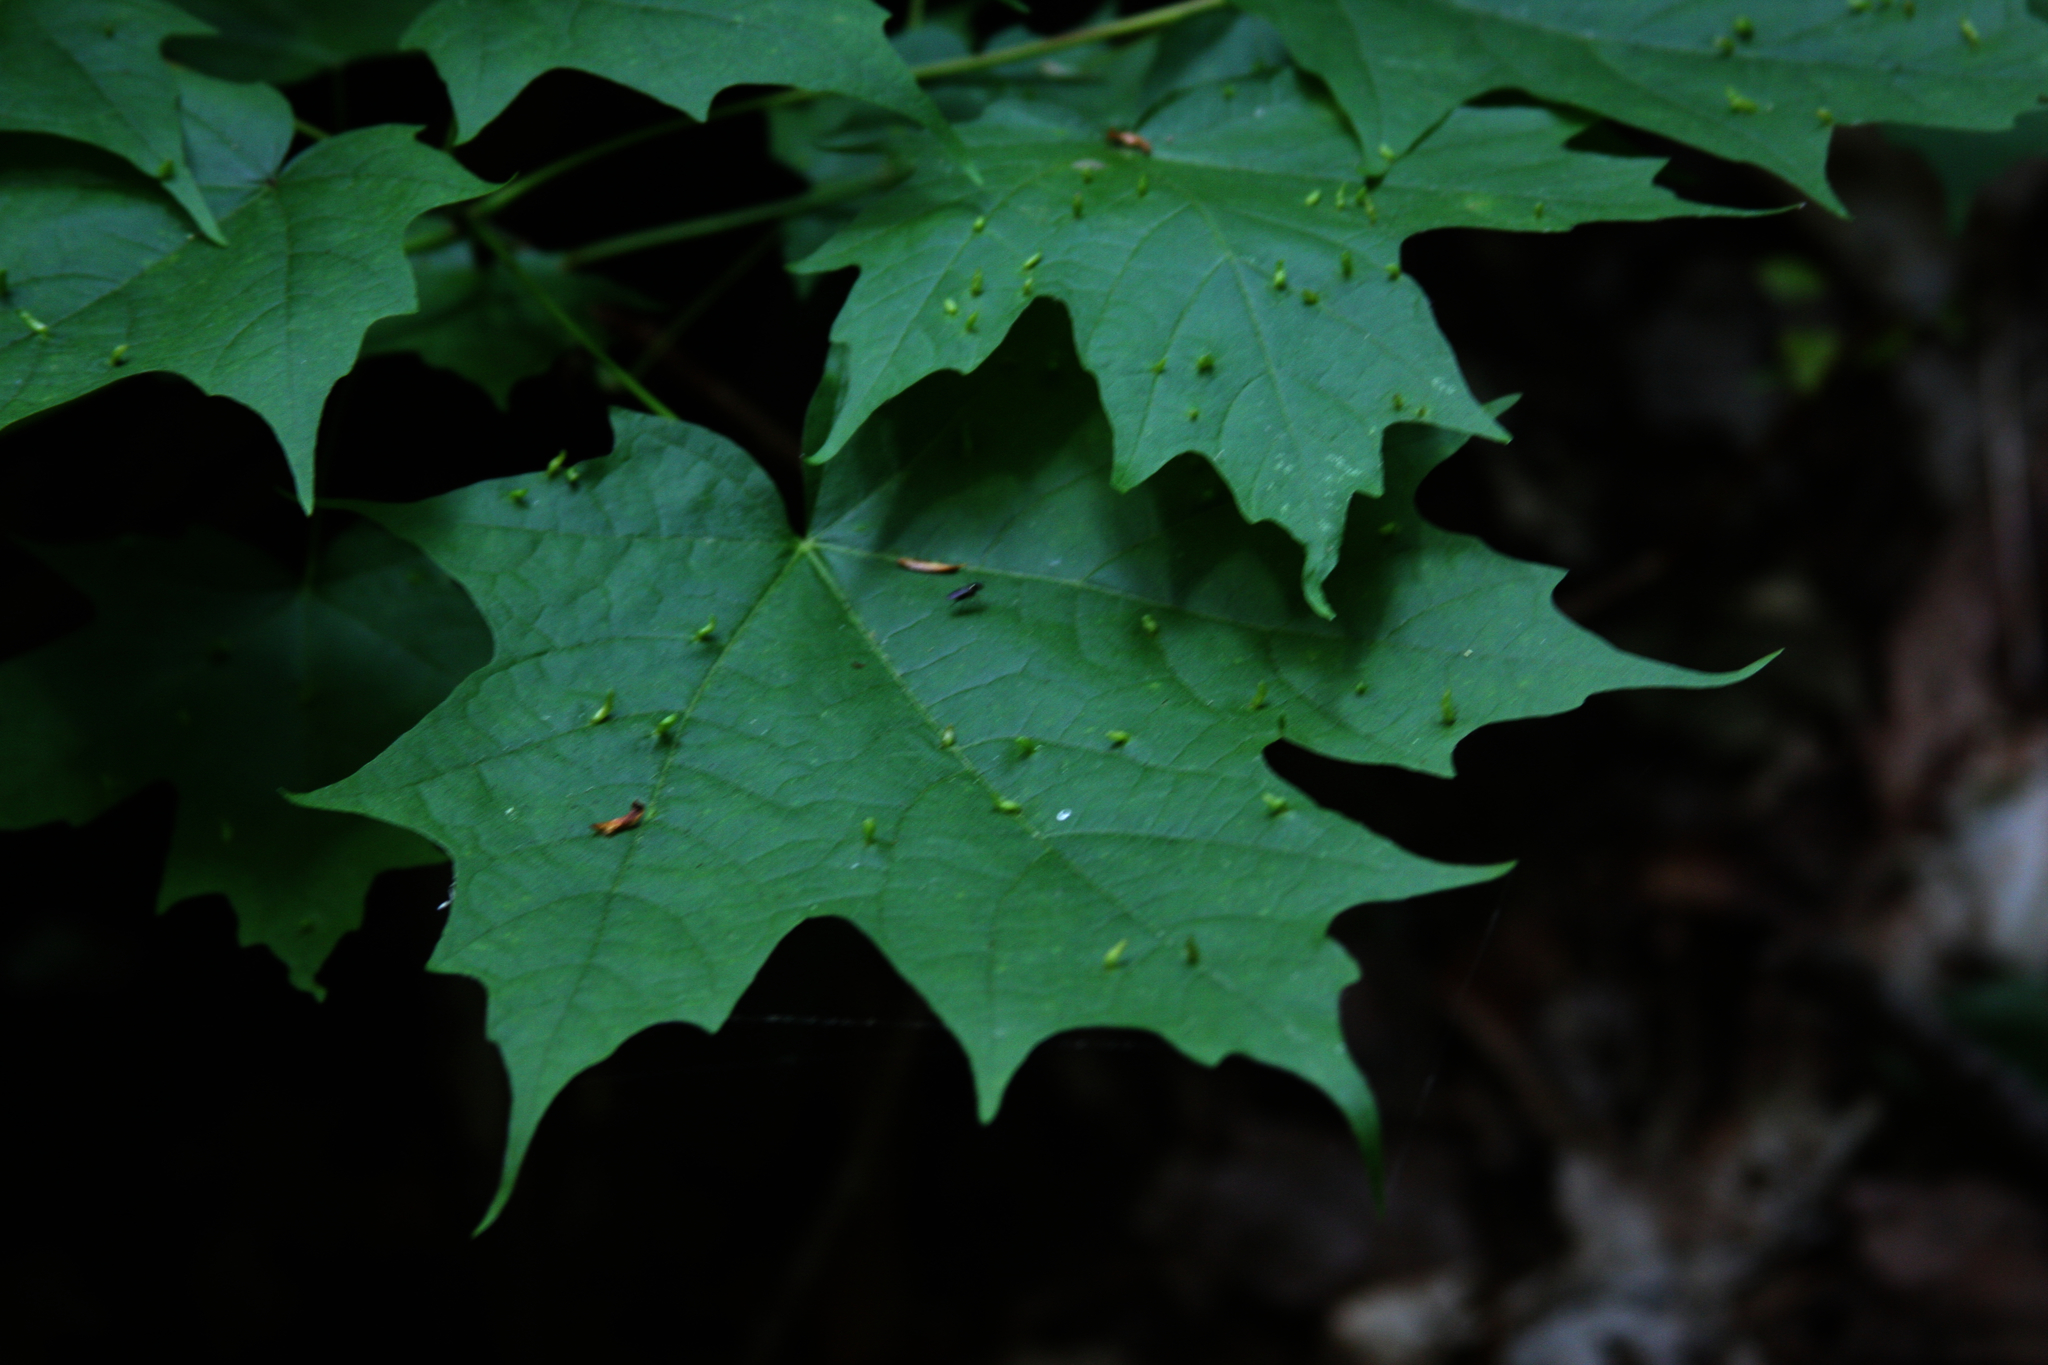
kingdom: Plantae
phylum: Tracheophyta
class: Magnoliopsida
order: Sapindales
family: Sapindaceae
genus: Acer
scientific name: Acer saccharum
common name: Sugar maple
